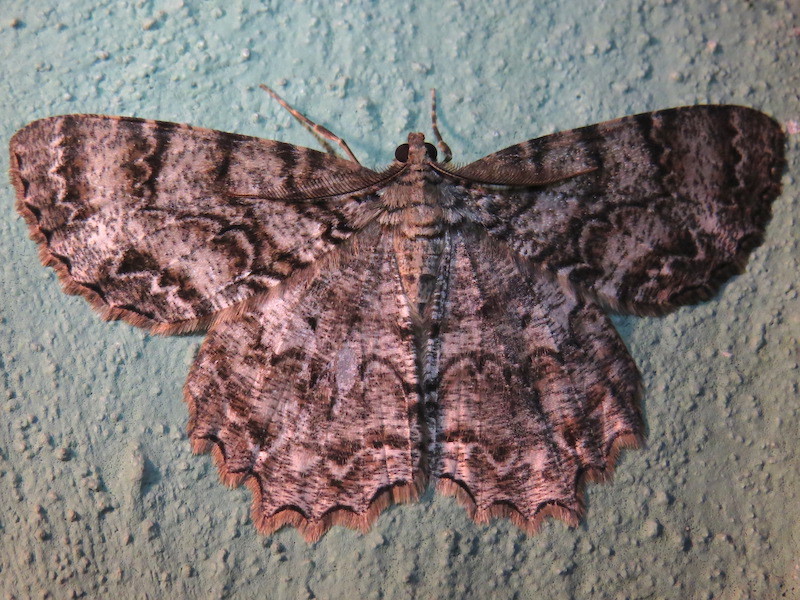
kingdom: Animalia
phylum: Arthropoda
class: Insecta
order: Lepidoptera
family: Geometridae
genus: Epimecis
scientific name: Epimecis hortaria
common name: Tulip-tree beauty
